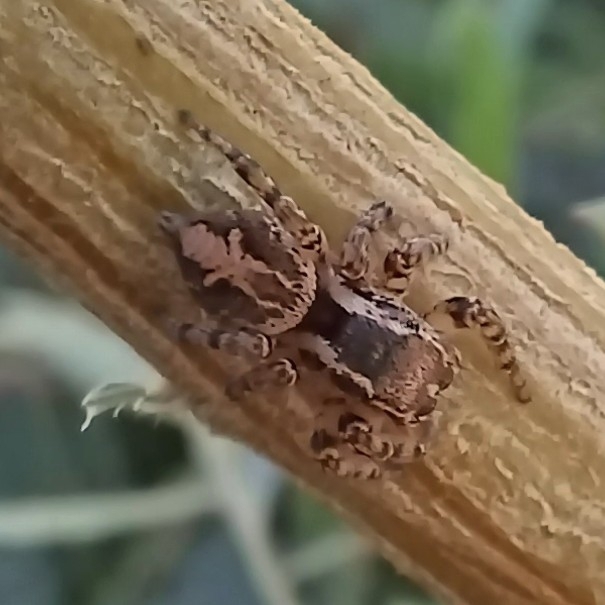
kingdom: Animalia
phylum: Arthropoda
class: Arachnida
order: Araneae
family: Salticidae
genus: Aphirape
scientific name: Aphirape flexa
